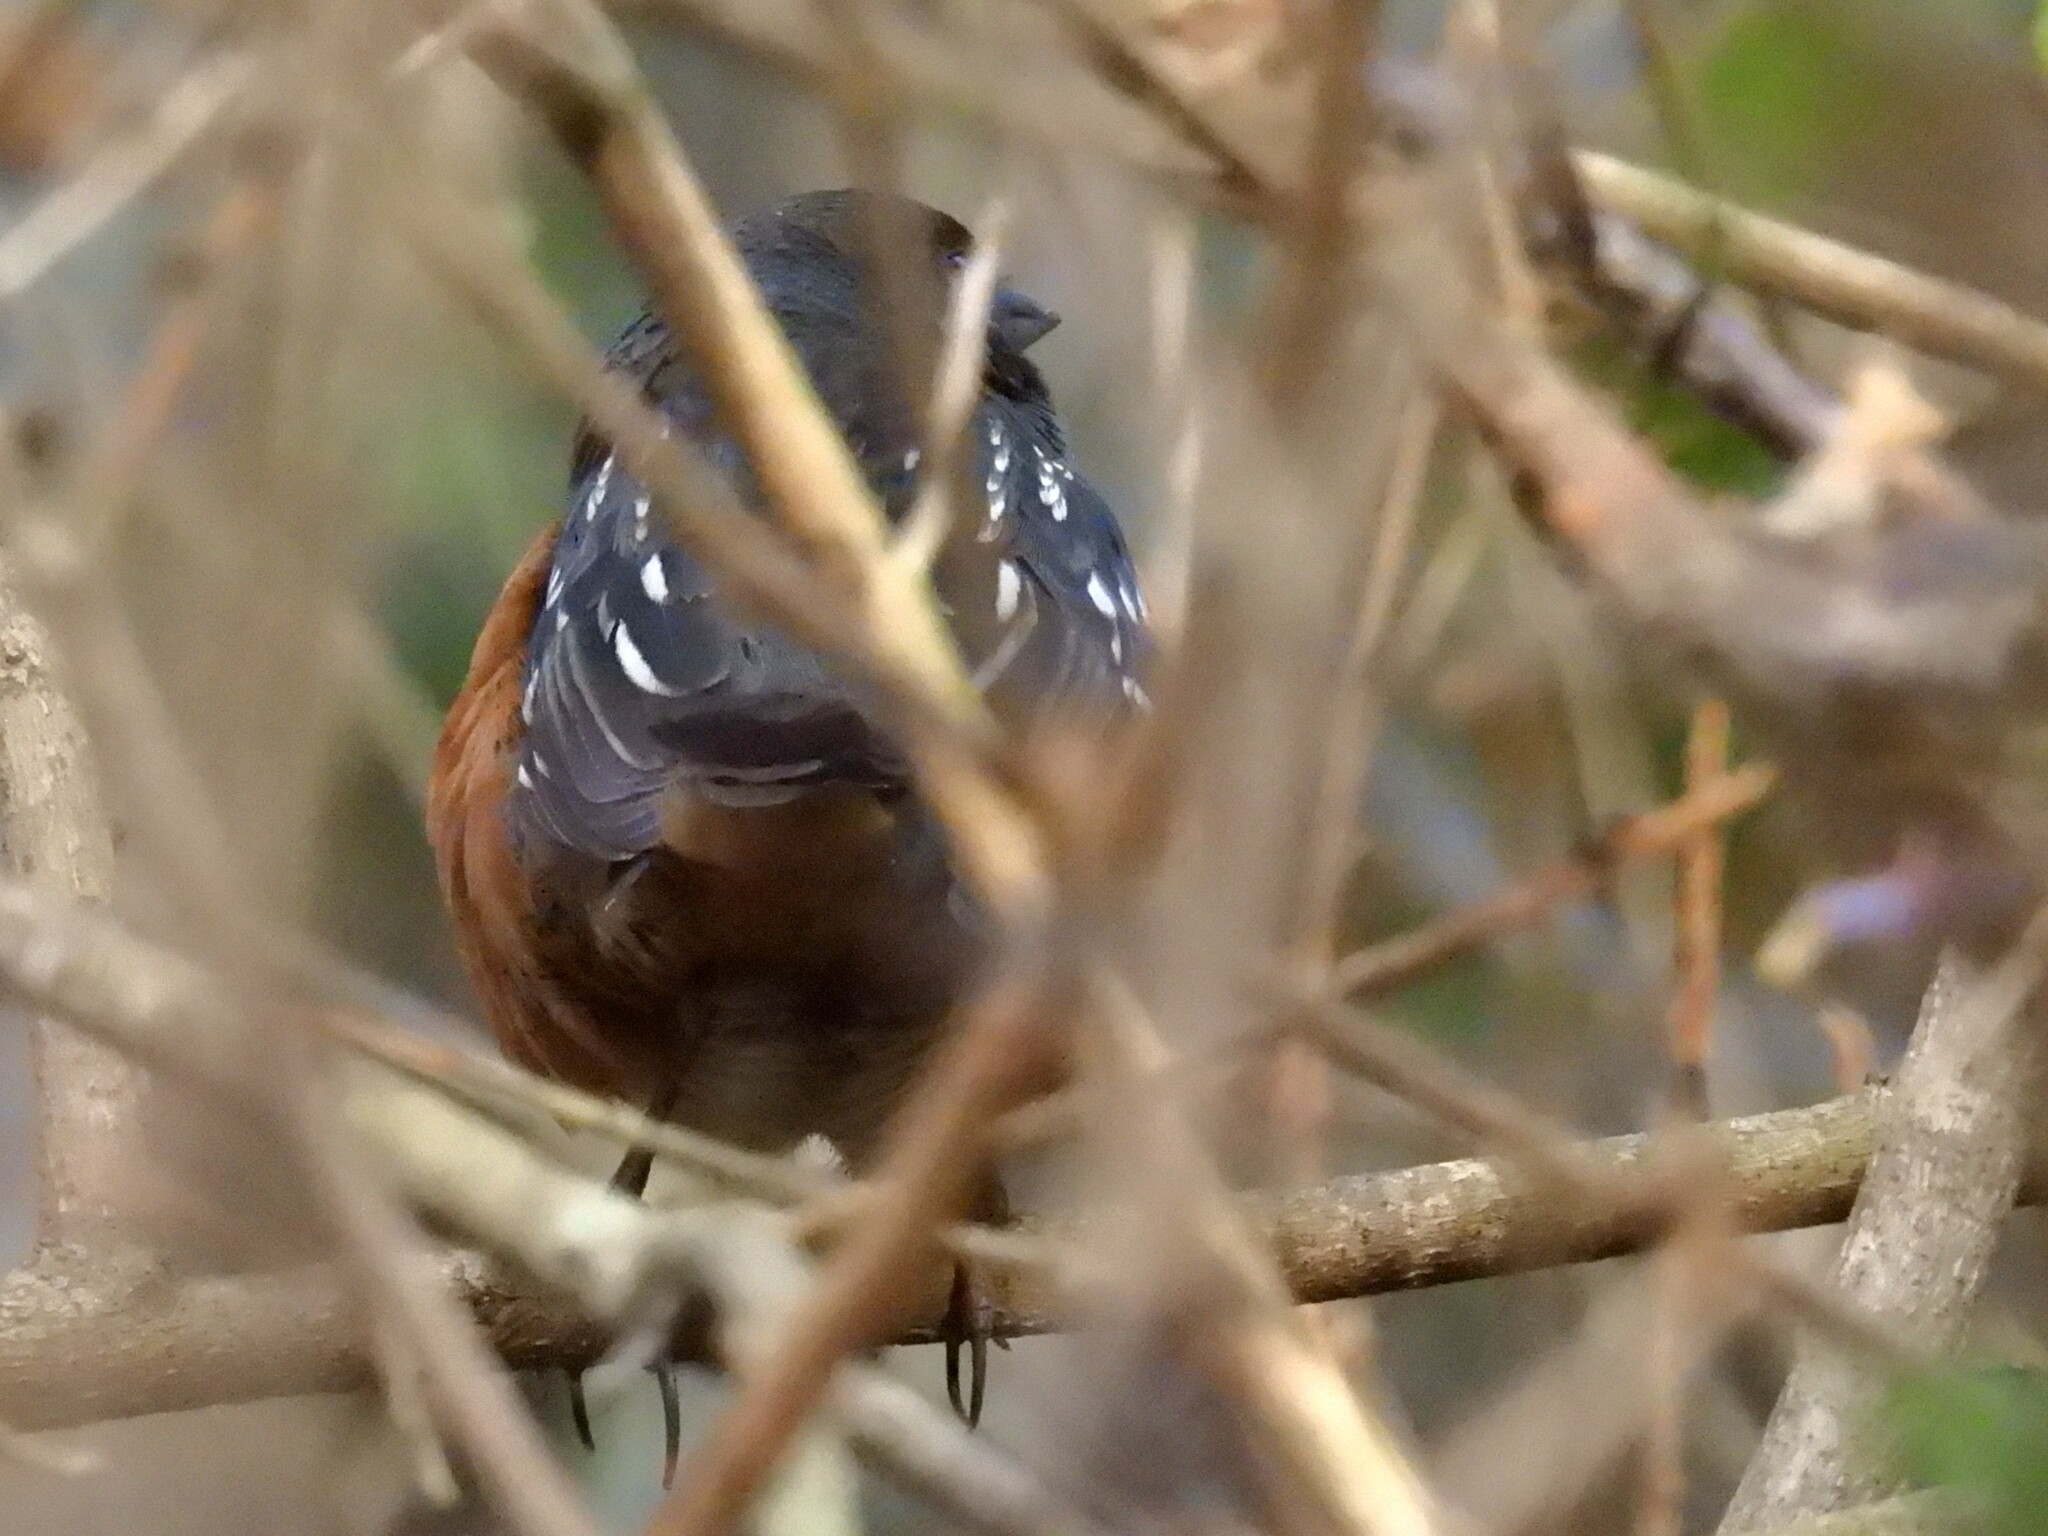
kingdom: Animalia
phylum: Chordata
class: Aves
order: Passeriformes
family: Passerellidae
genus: Pipilo
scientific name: Pipilo maculatus
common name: Spotted towhee
